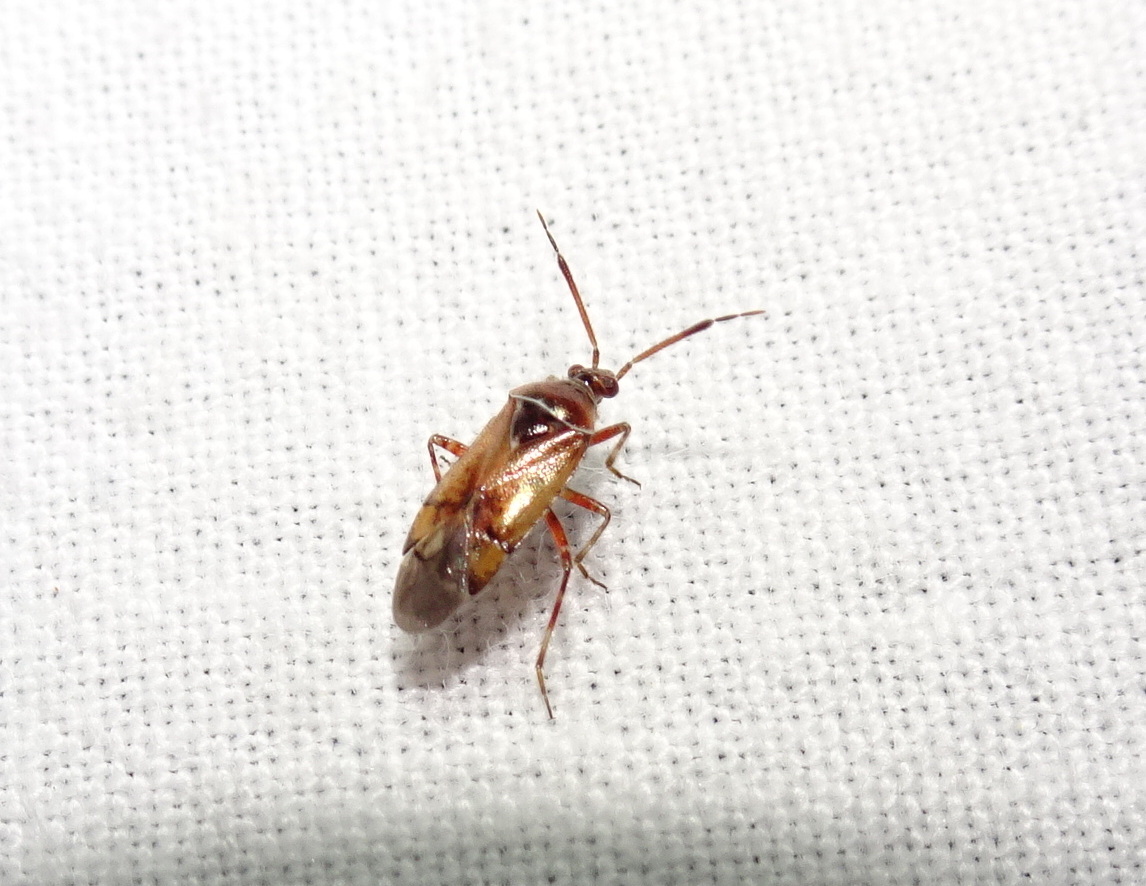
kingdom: Animalia
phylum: Arthropoda
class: Insecta
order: Hemiptera
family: Miridae
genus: Alloeotomus
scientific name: Alloeotomus germanicus
